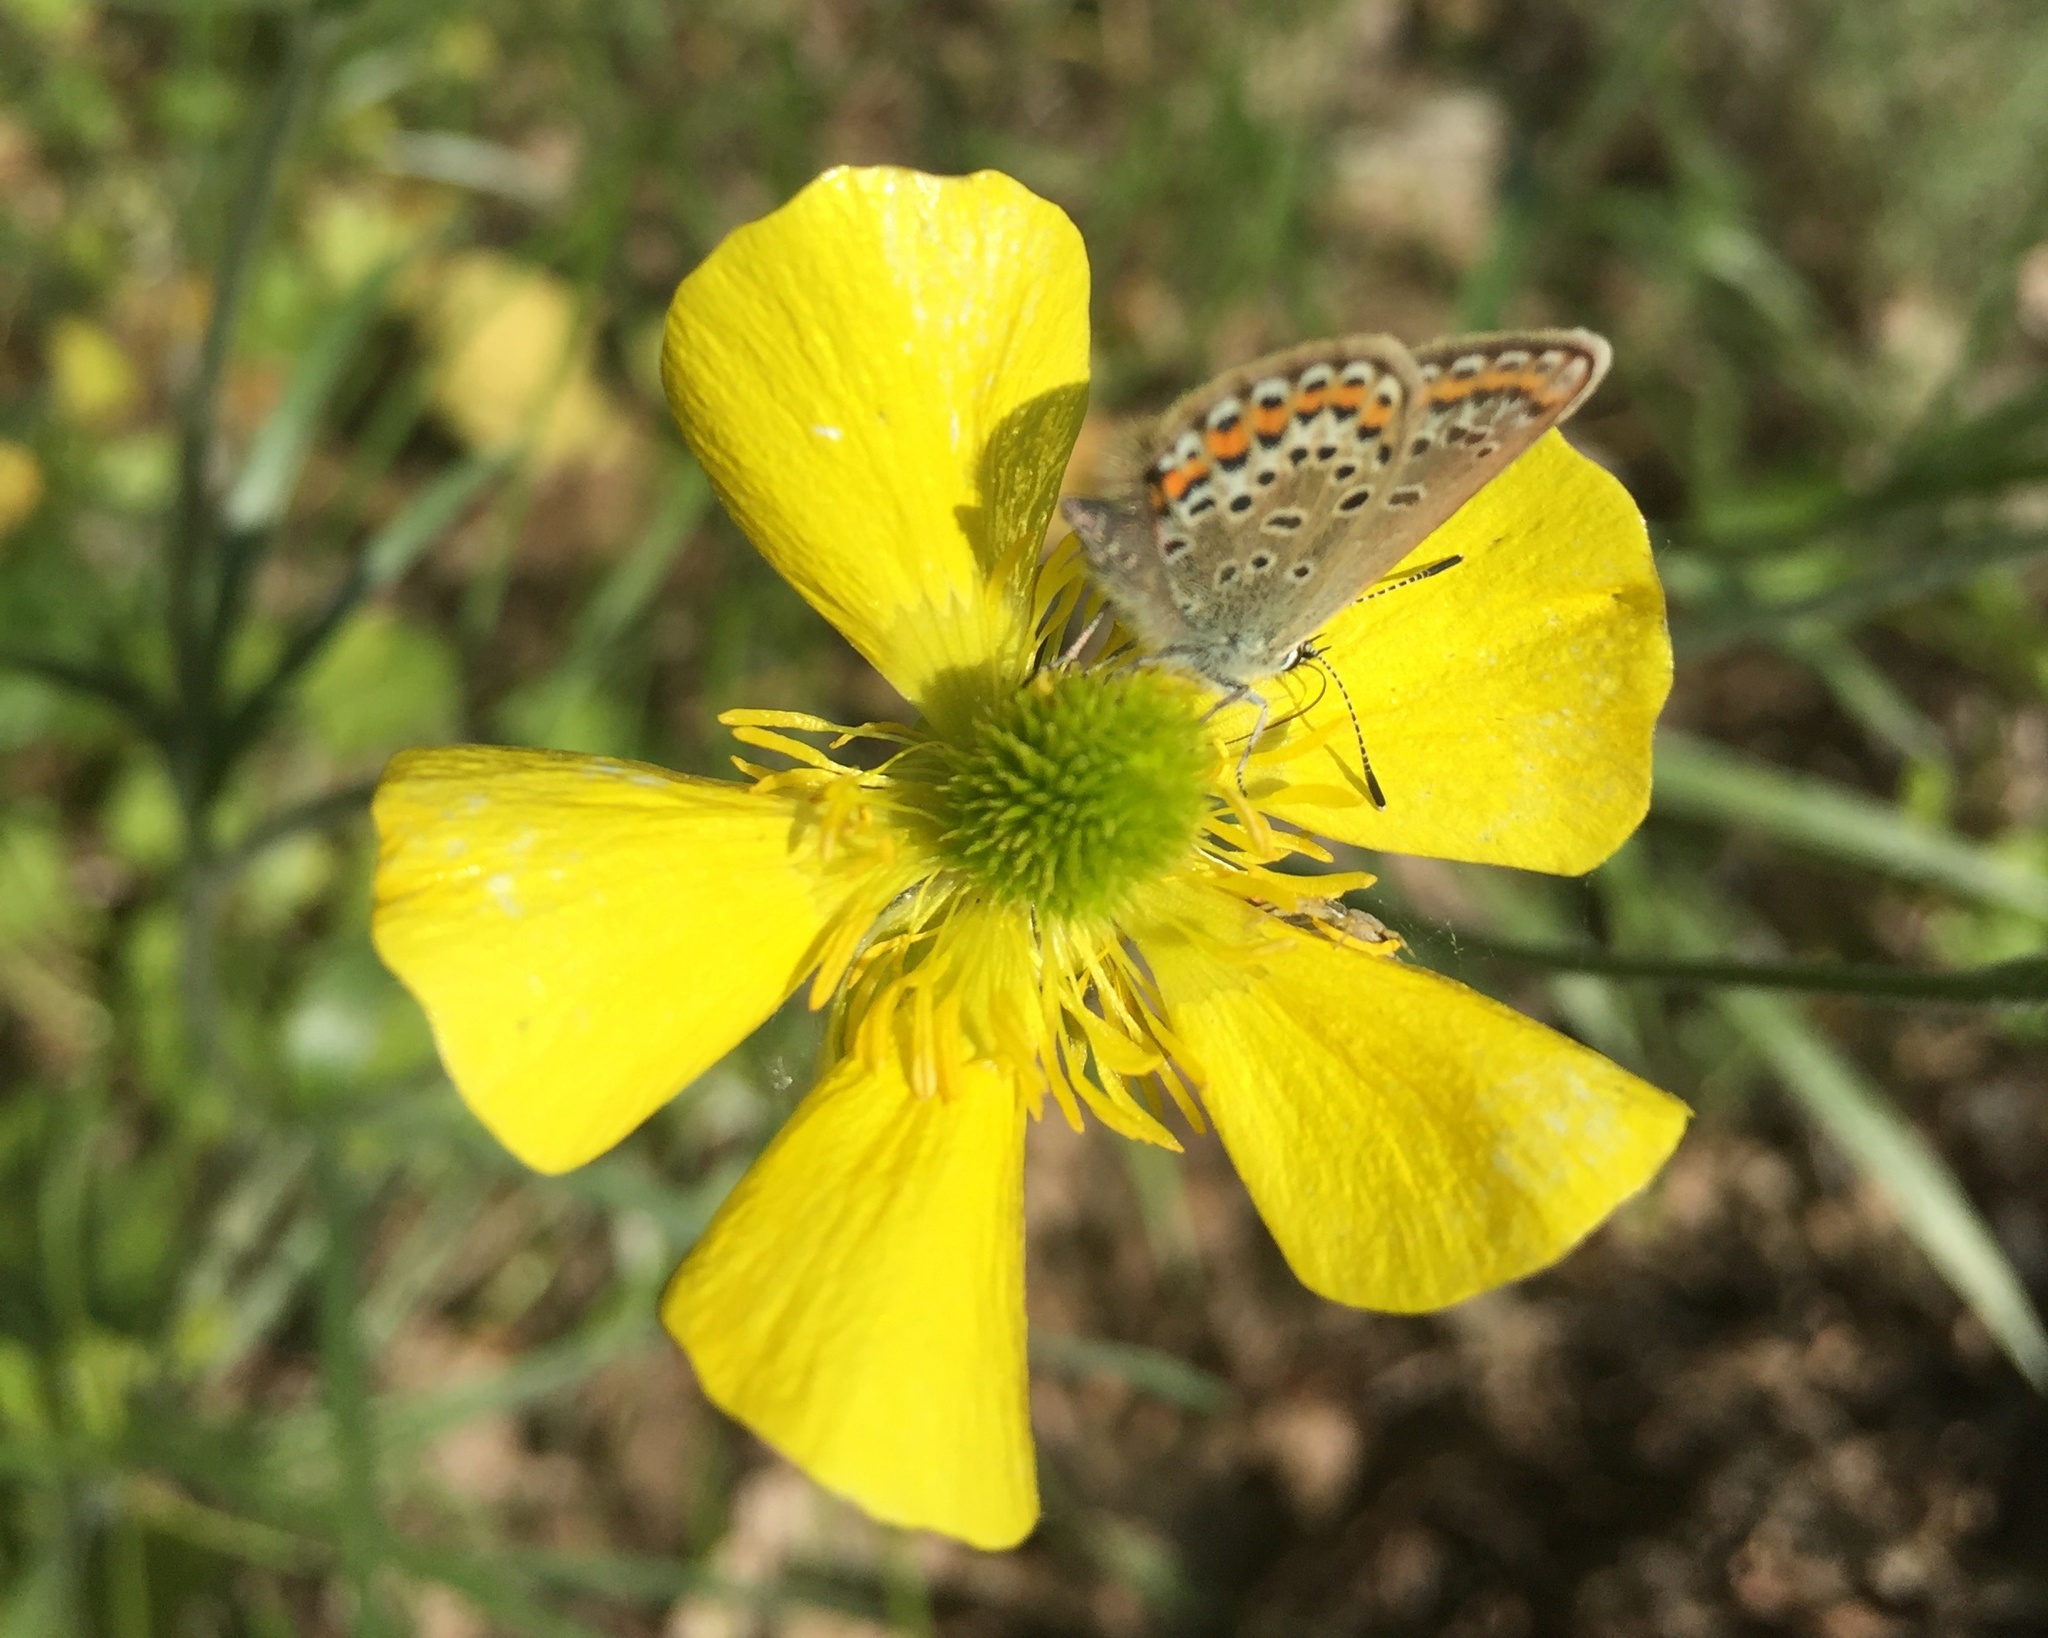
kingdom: Animalia
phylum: Arthropoda
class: Insecta
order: Lepidoptera
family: Lycaenidae
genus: Plebejus
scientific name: Plebejus argus
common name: Silver-studded blue
